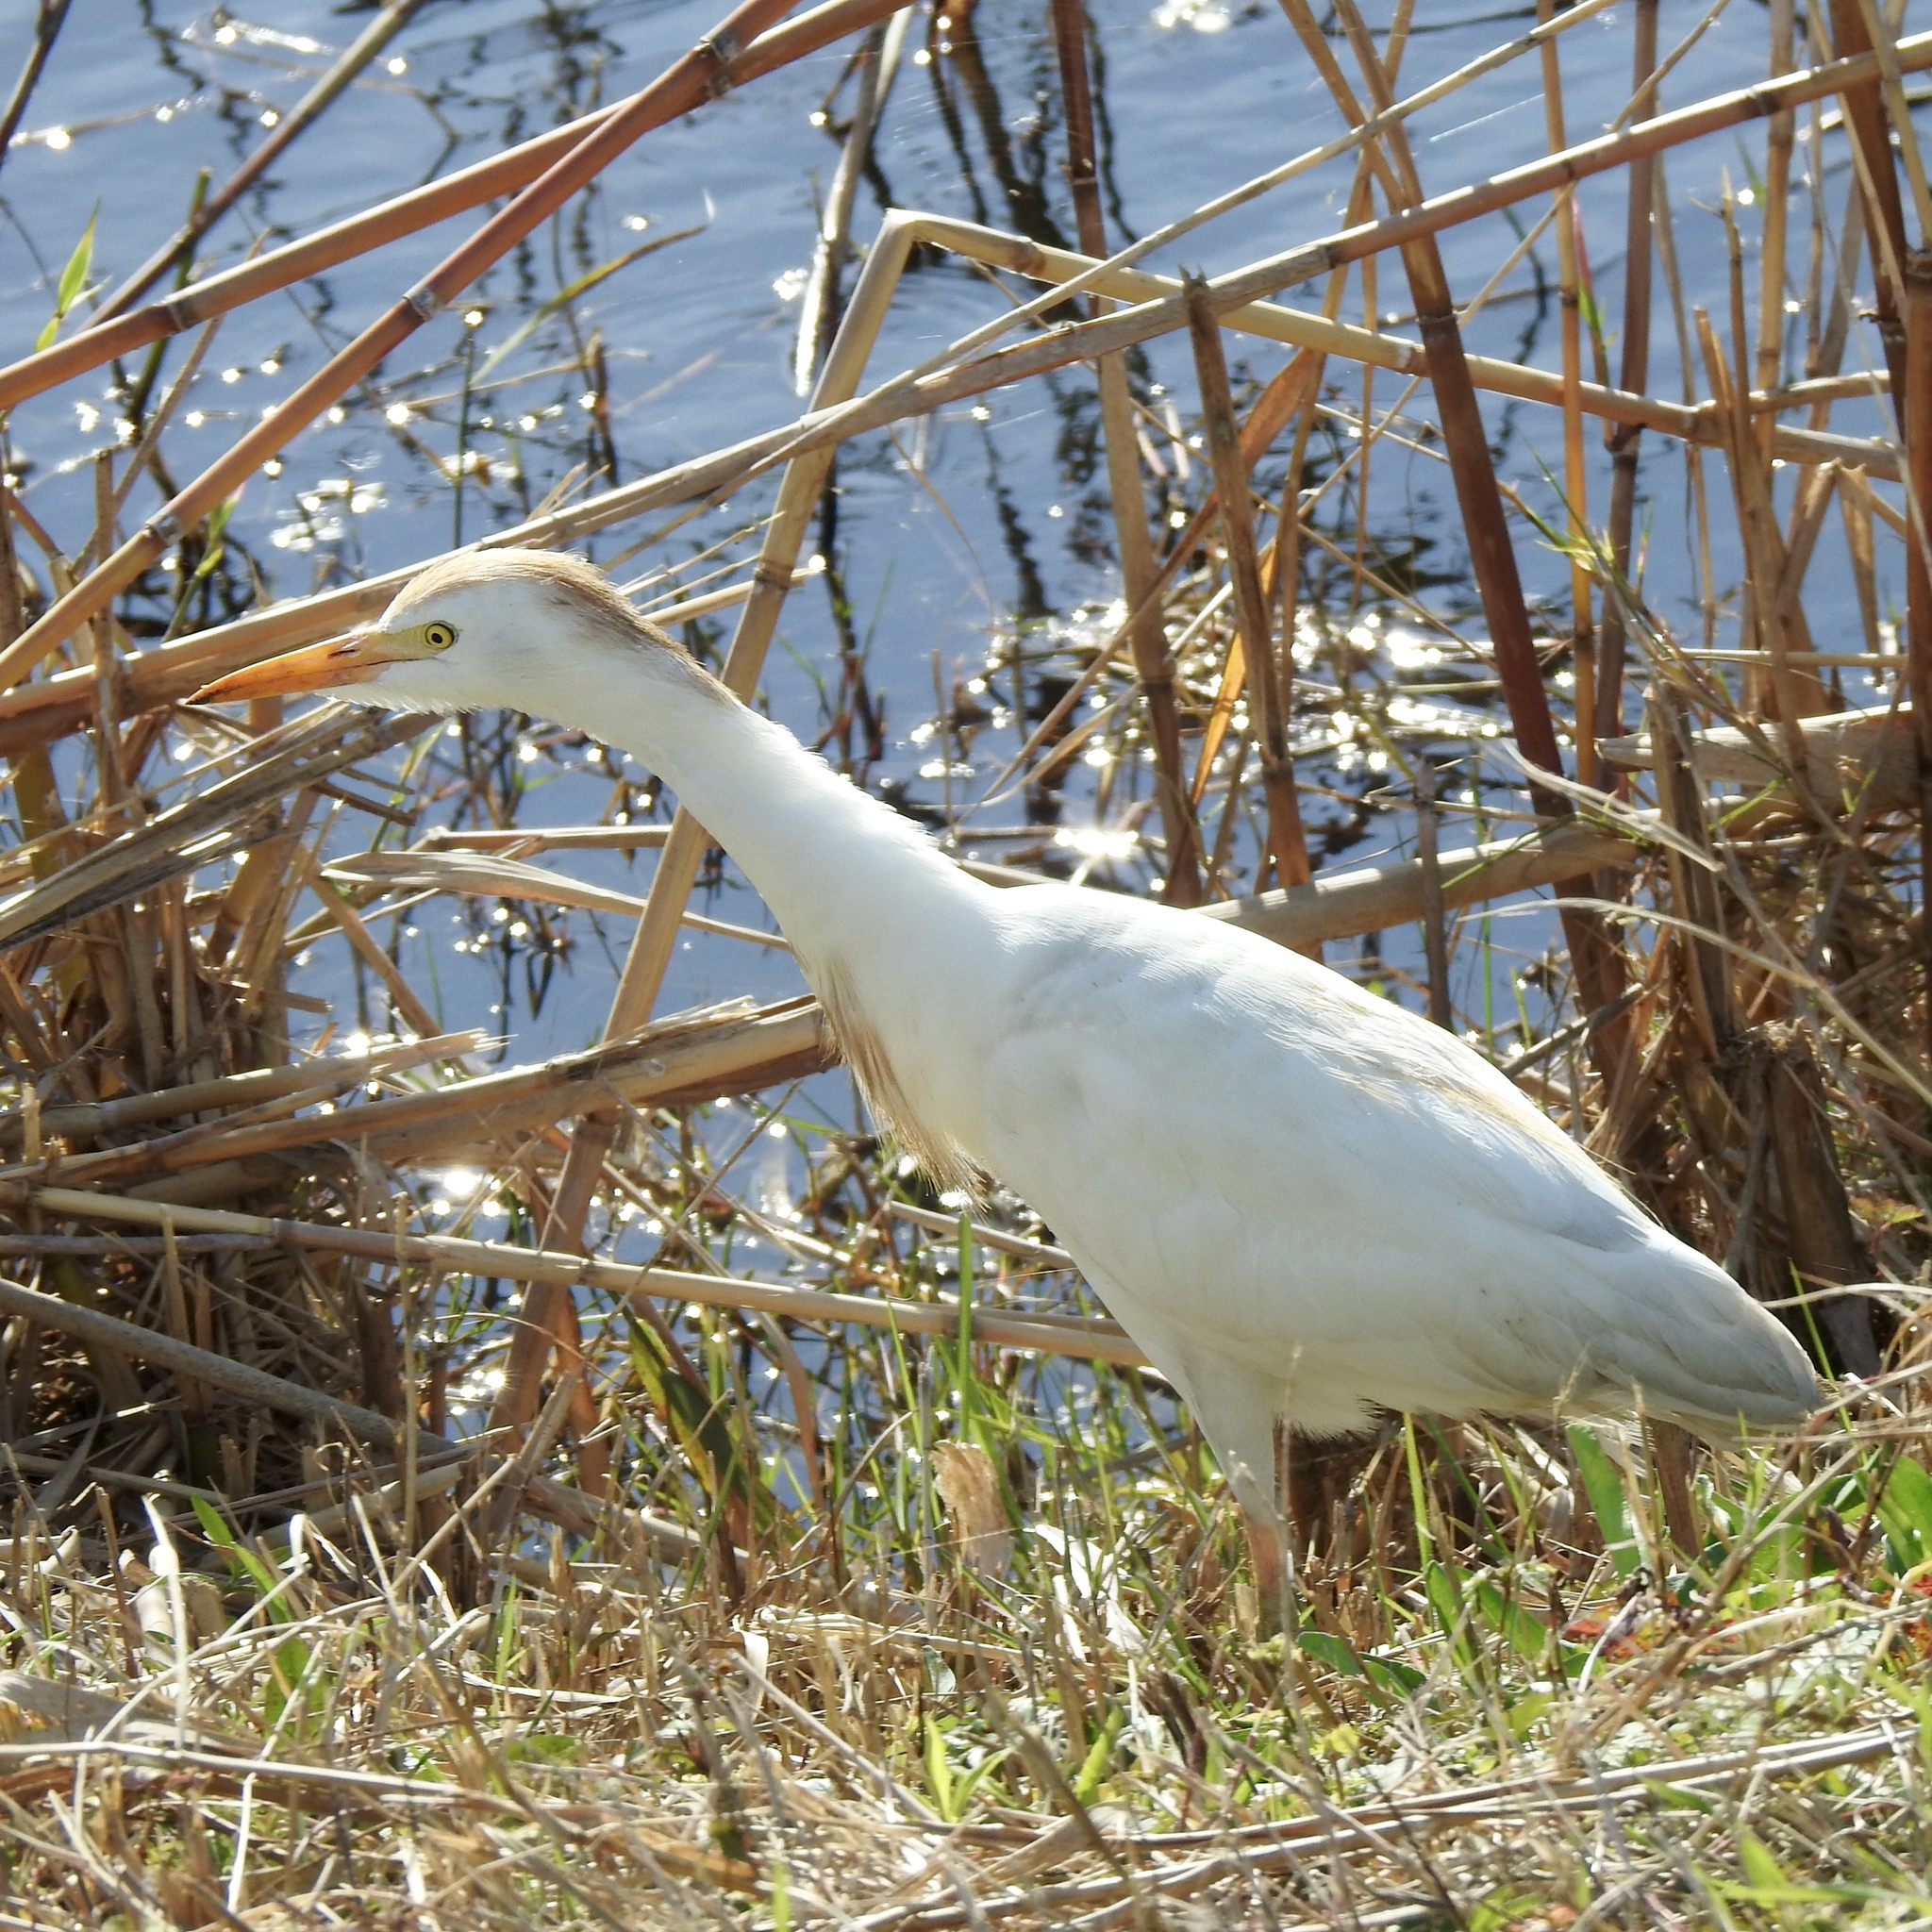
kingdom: Animalia
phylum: Chordata
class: Aves
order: Pelecaniformes
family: Ardeidae
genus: Bubulcus
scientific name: Bubulcus ibis
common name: Cattle egret
